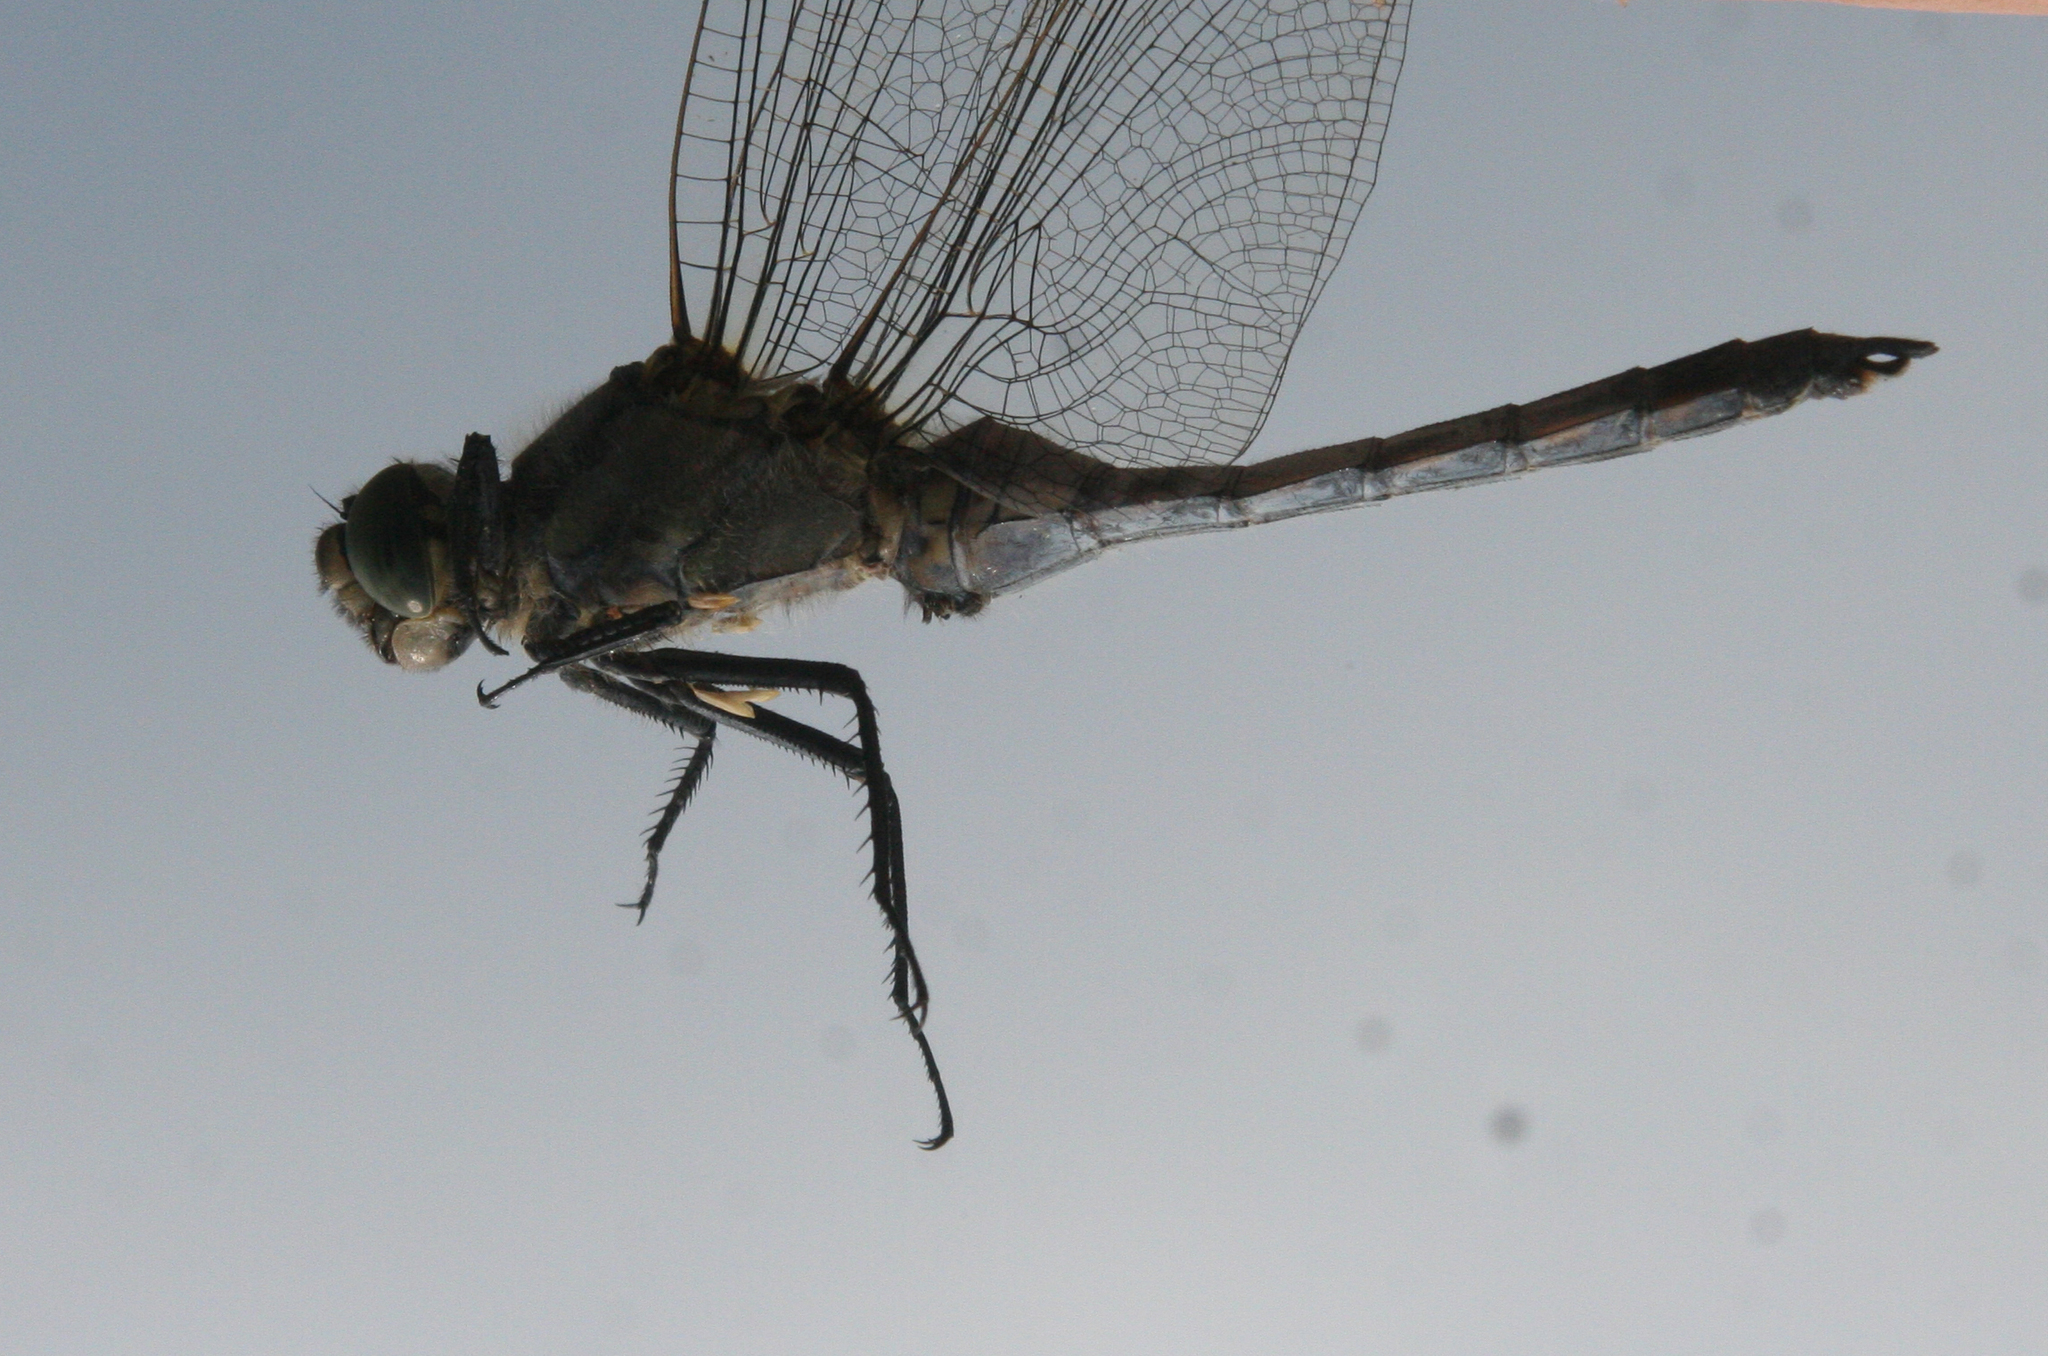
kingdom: Animalia
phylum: Arthropoda
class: Insecta
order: Odonata
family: Libellulidae
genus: Orthetrum
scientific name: Orthetrum cancellatum
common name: Black-tailed skimmer
